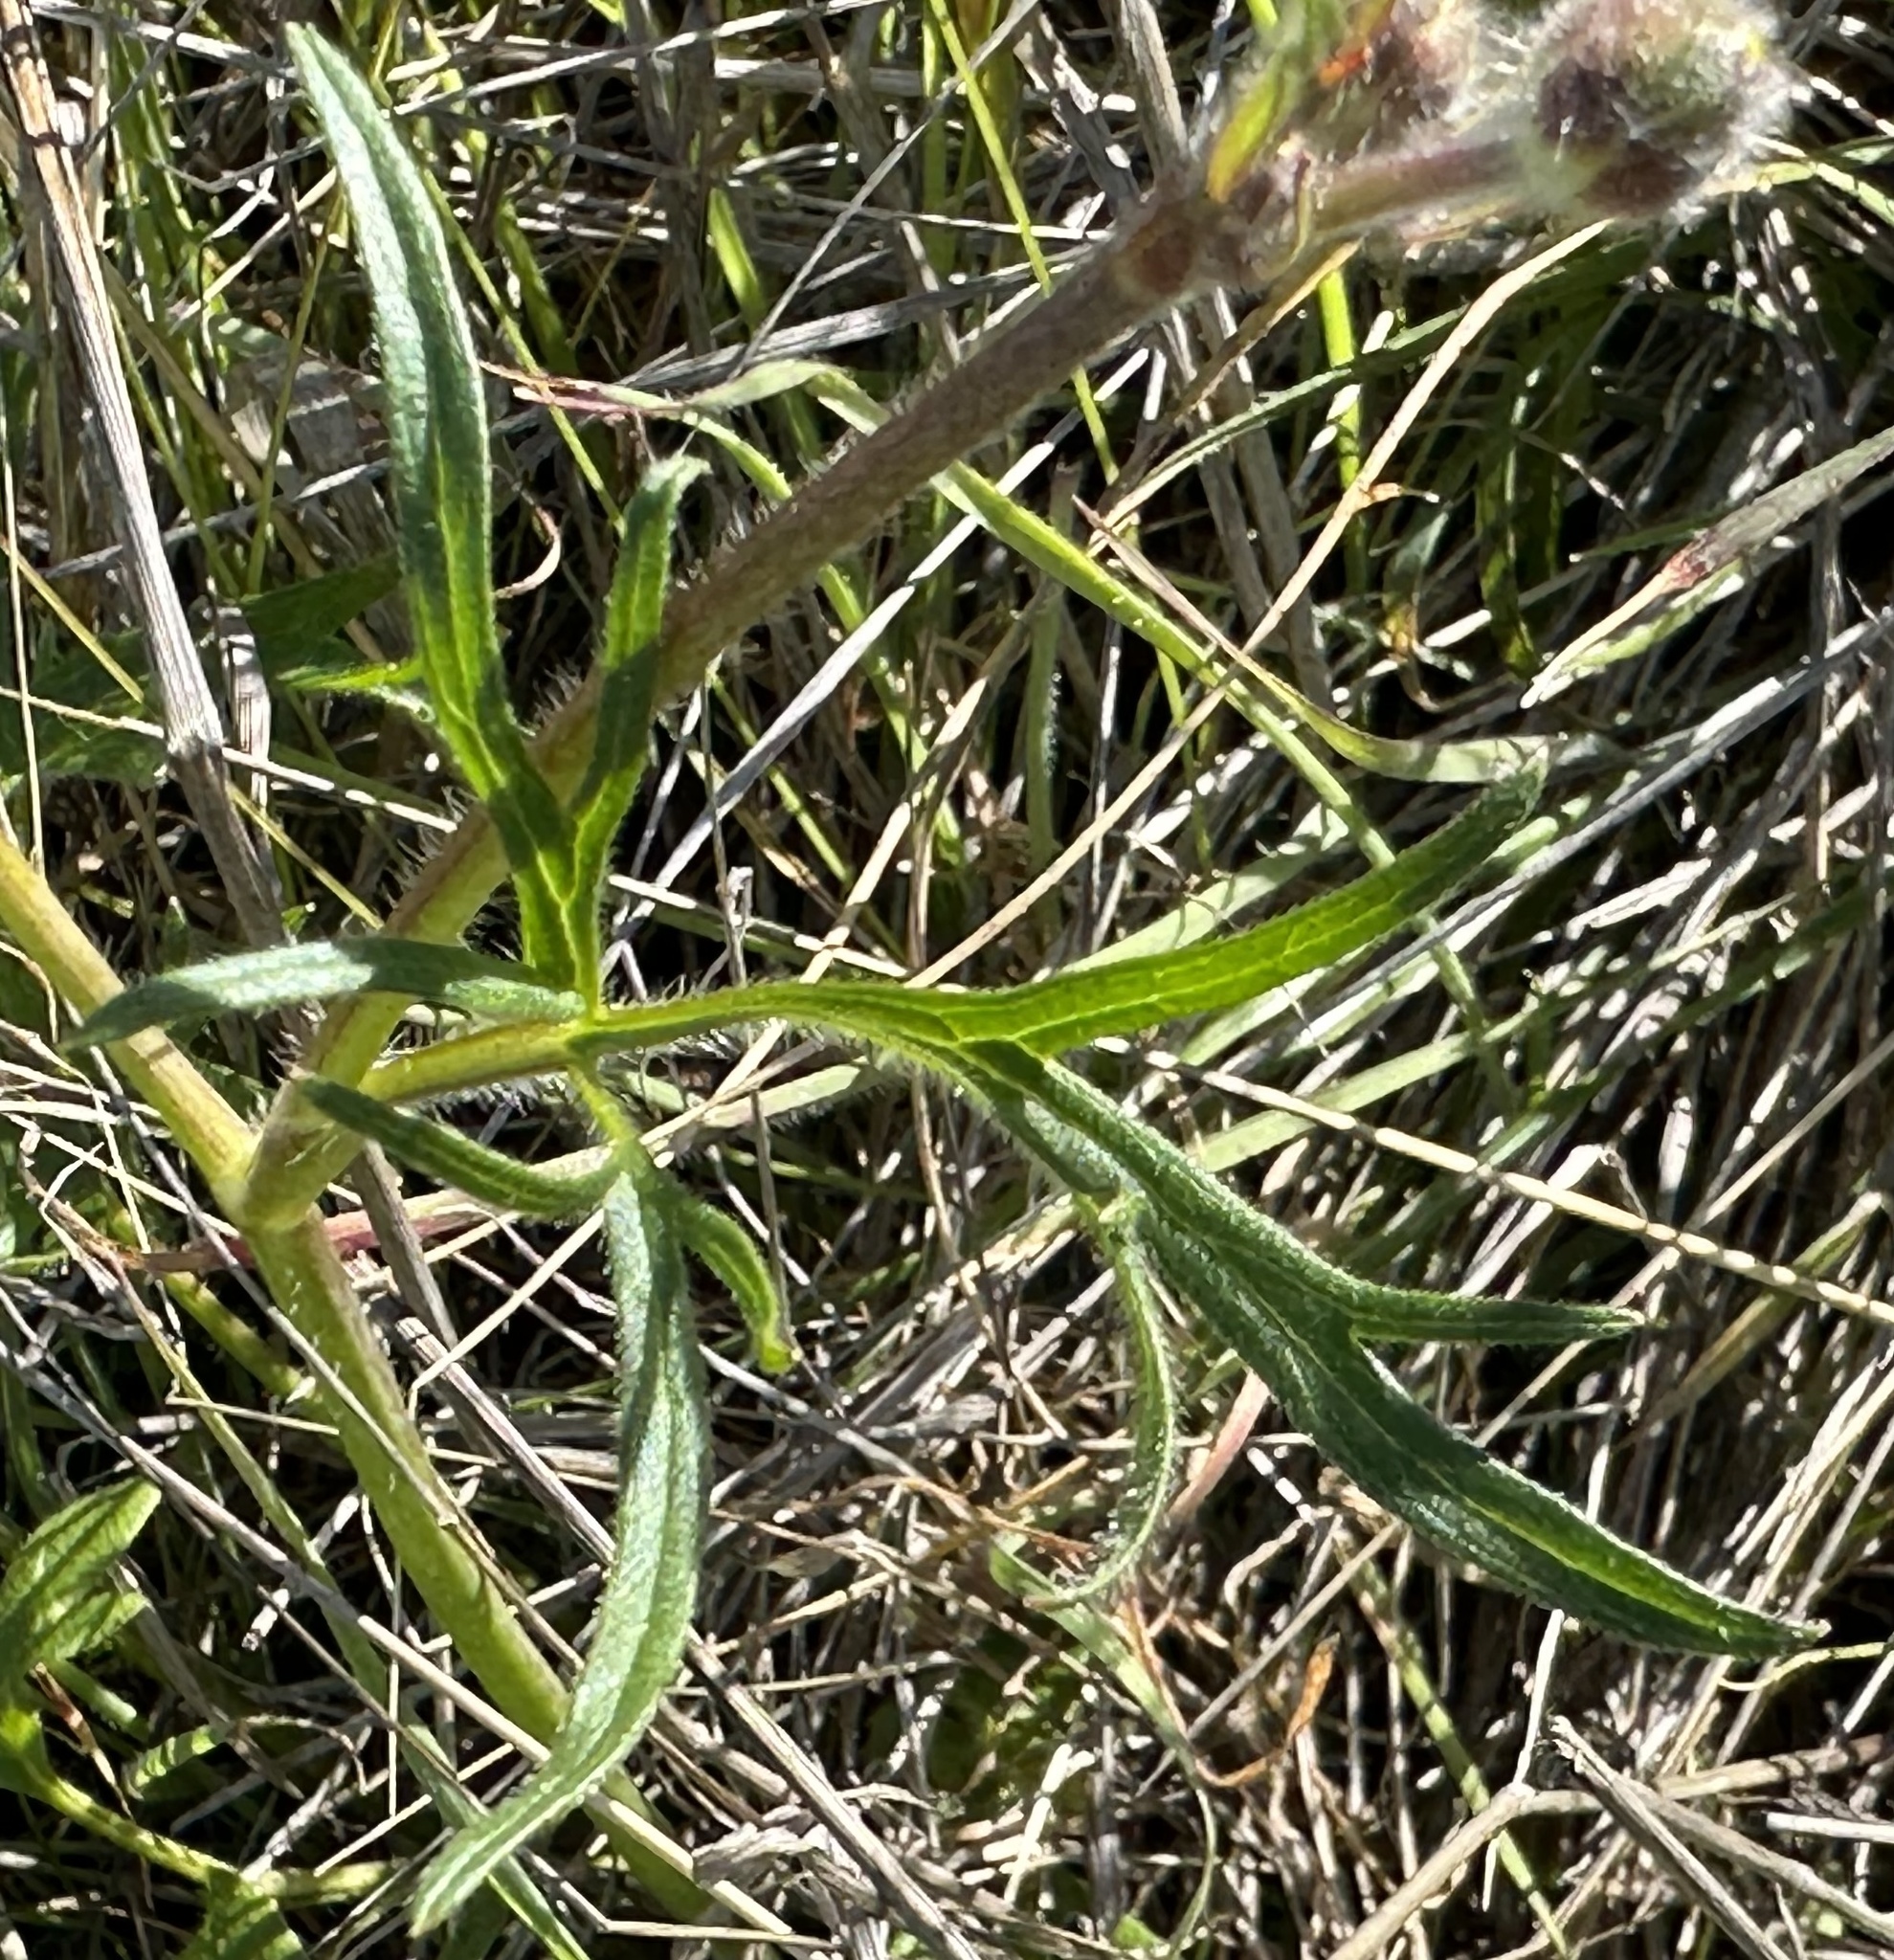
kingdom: Plantae
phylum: Tracheophyta
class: Magnoliopsida
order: Ranunculales
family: Ranunculaceae
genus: Ranunculus
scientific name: Ranunculus californicus
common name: California buttercup
